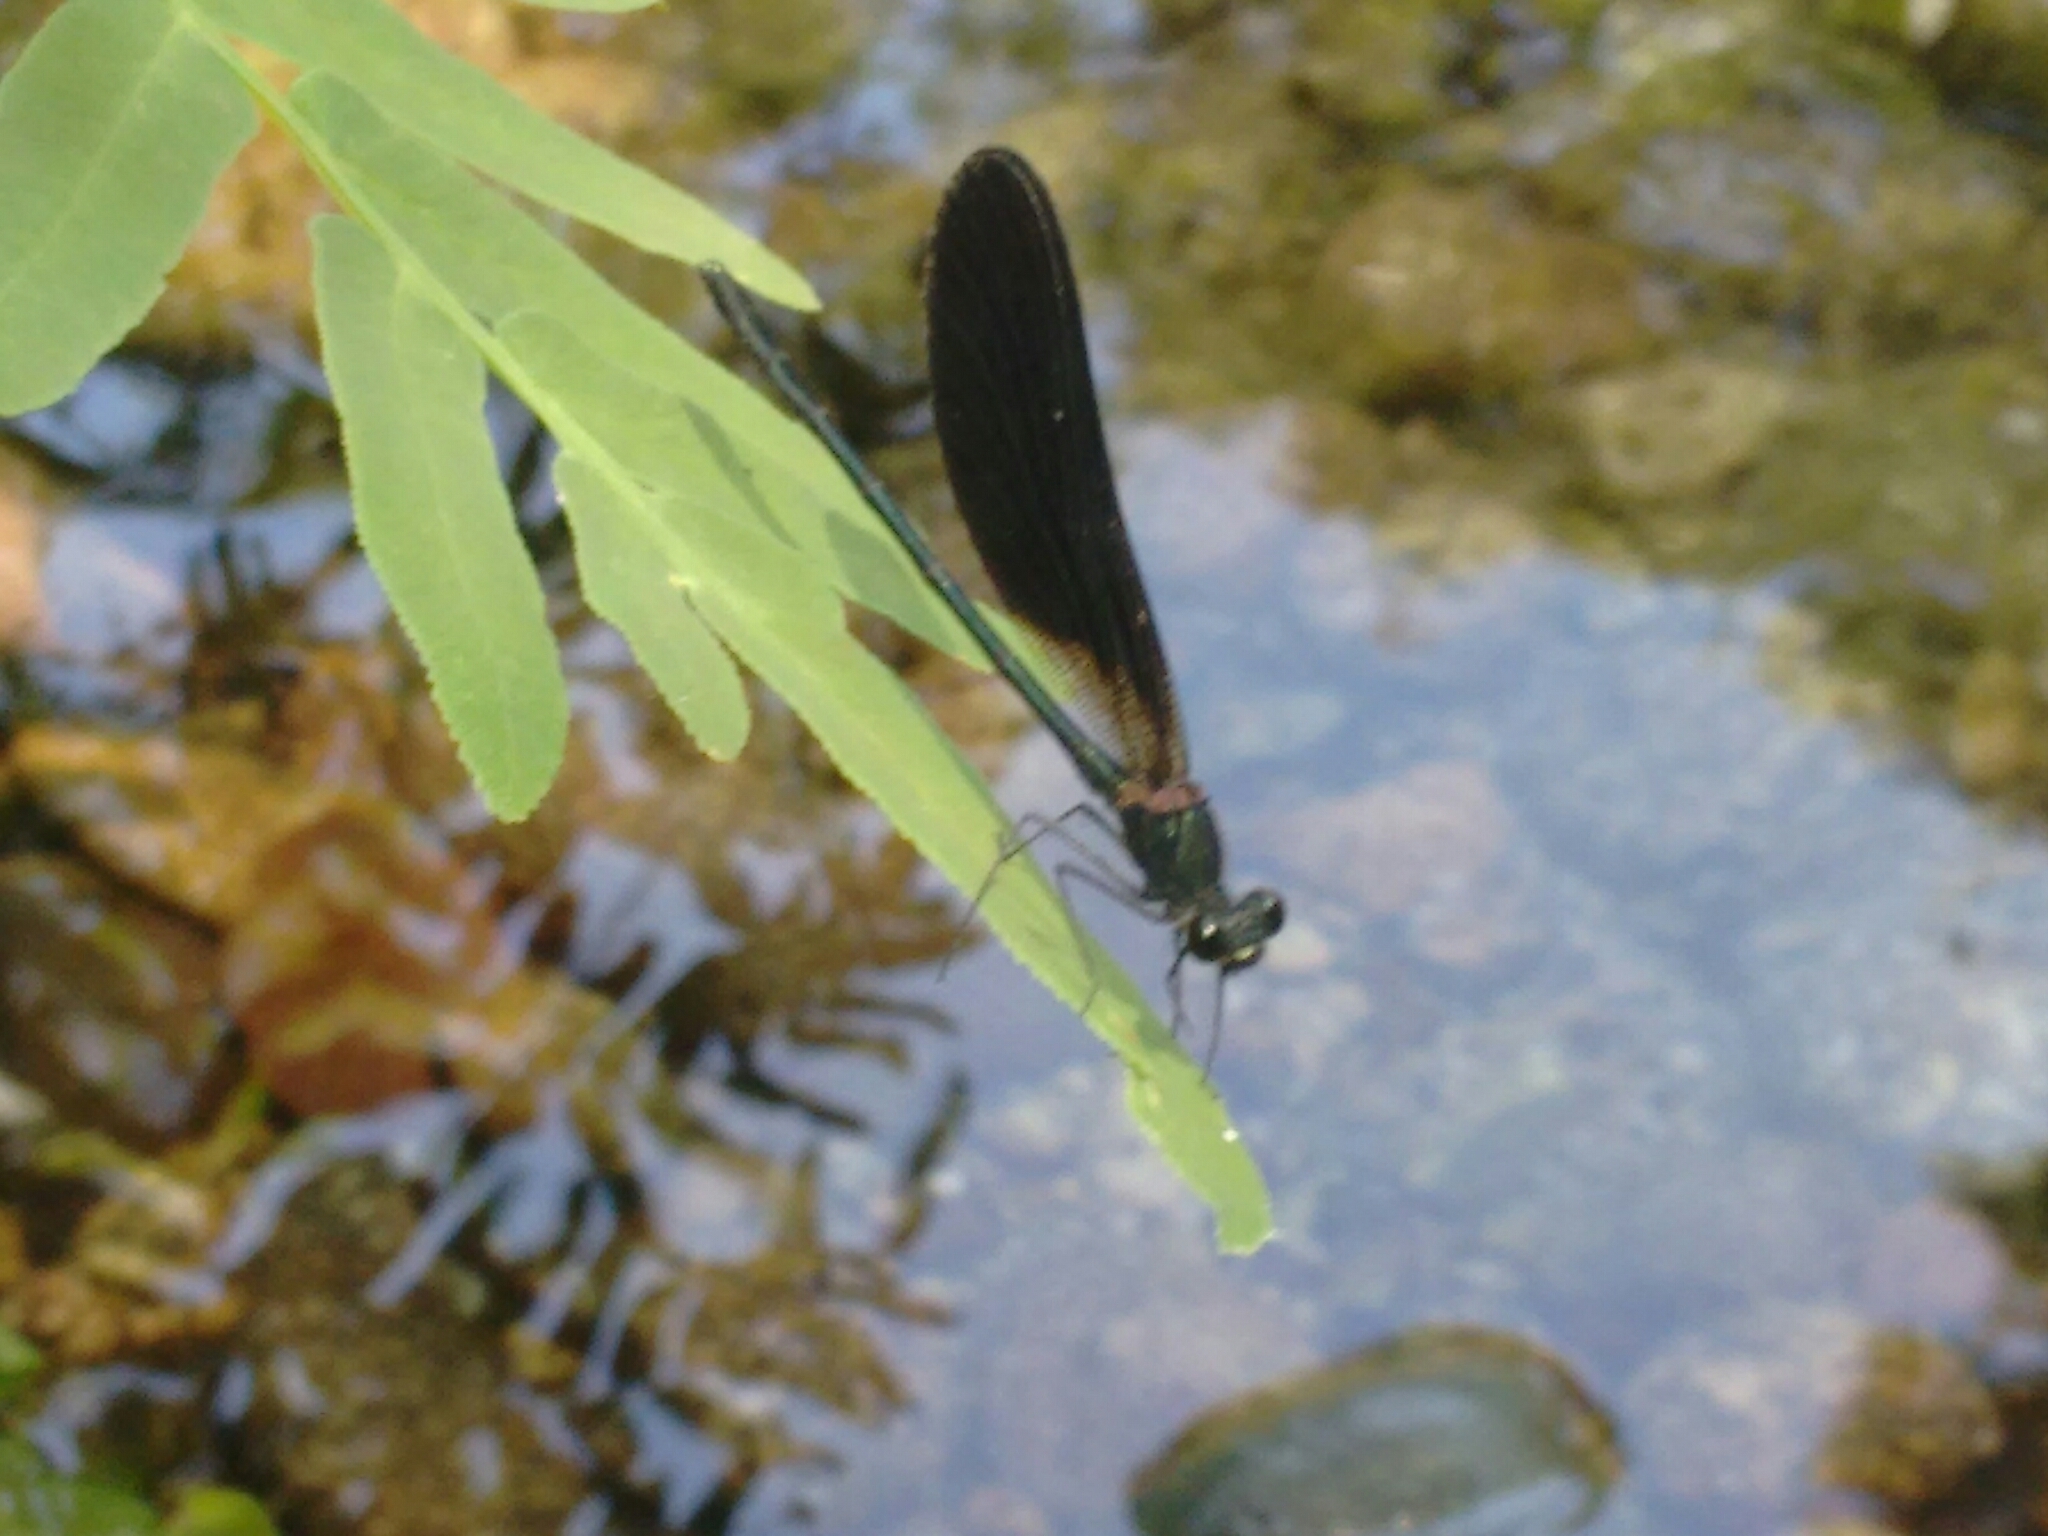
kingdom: Animalia
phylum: Arthropoda
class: Insecta
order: Odonata
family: Calopterygidae
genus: Calopteryx
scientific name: Calopteryx haemorrhoidalis
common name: Copper demoiselle
